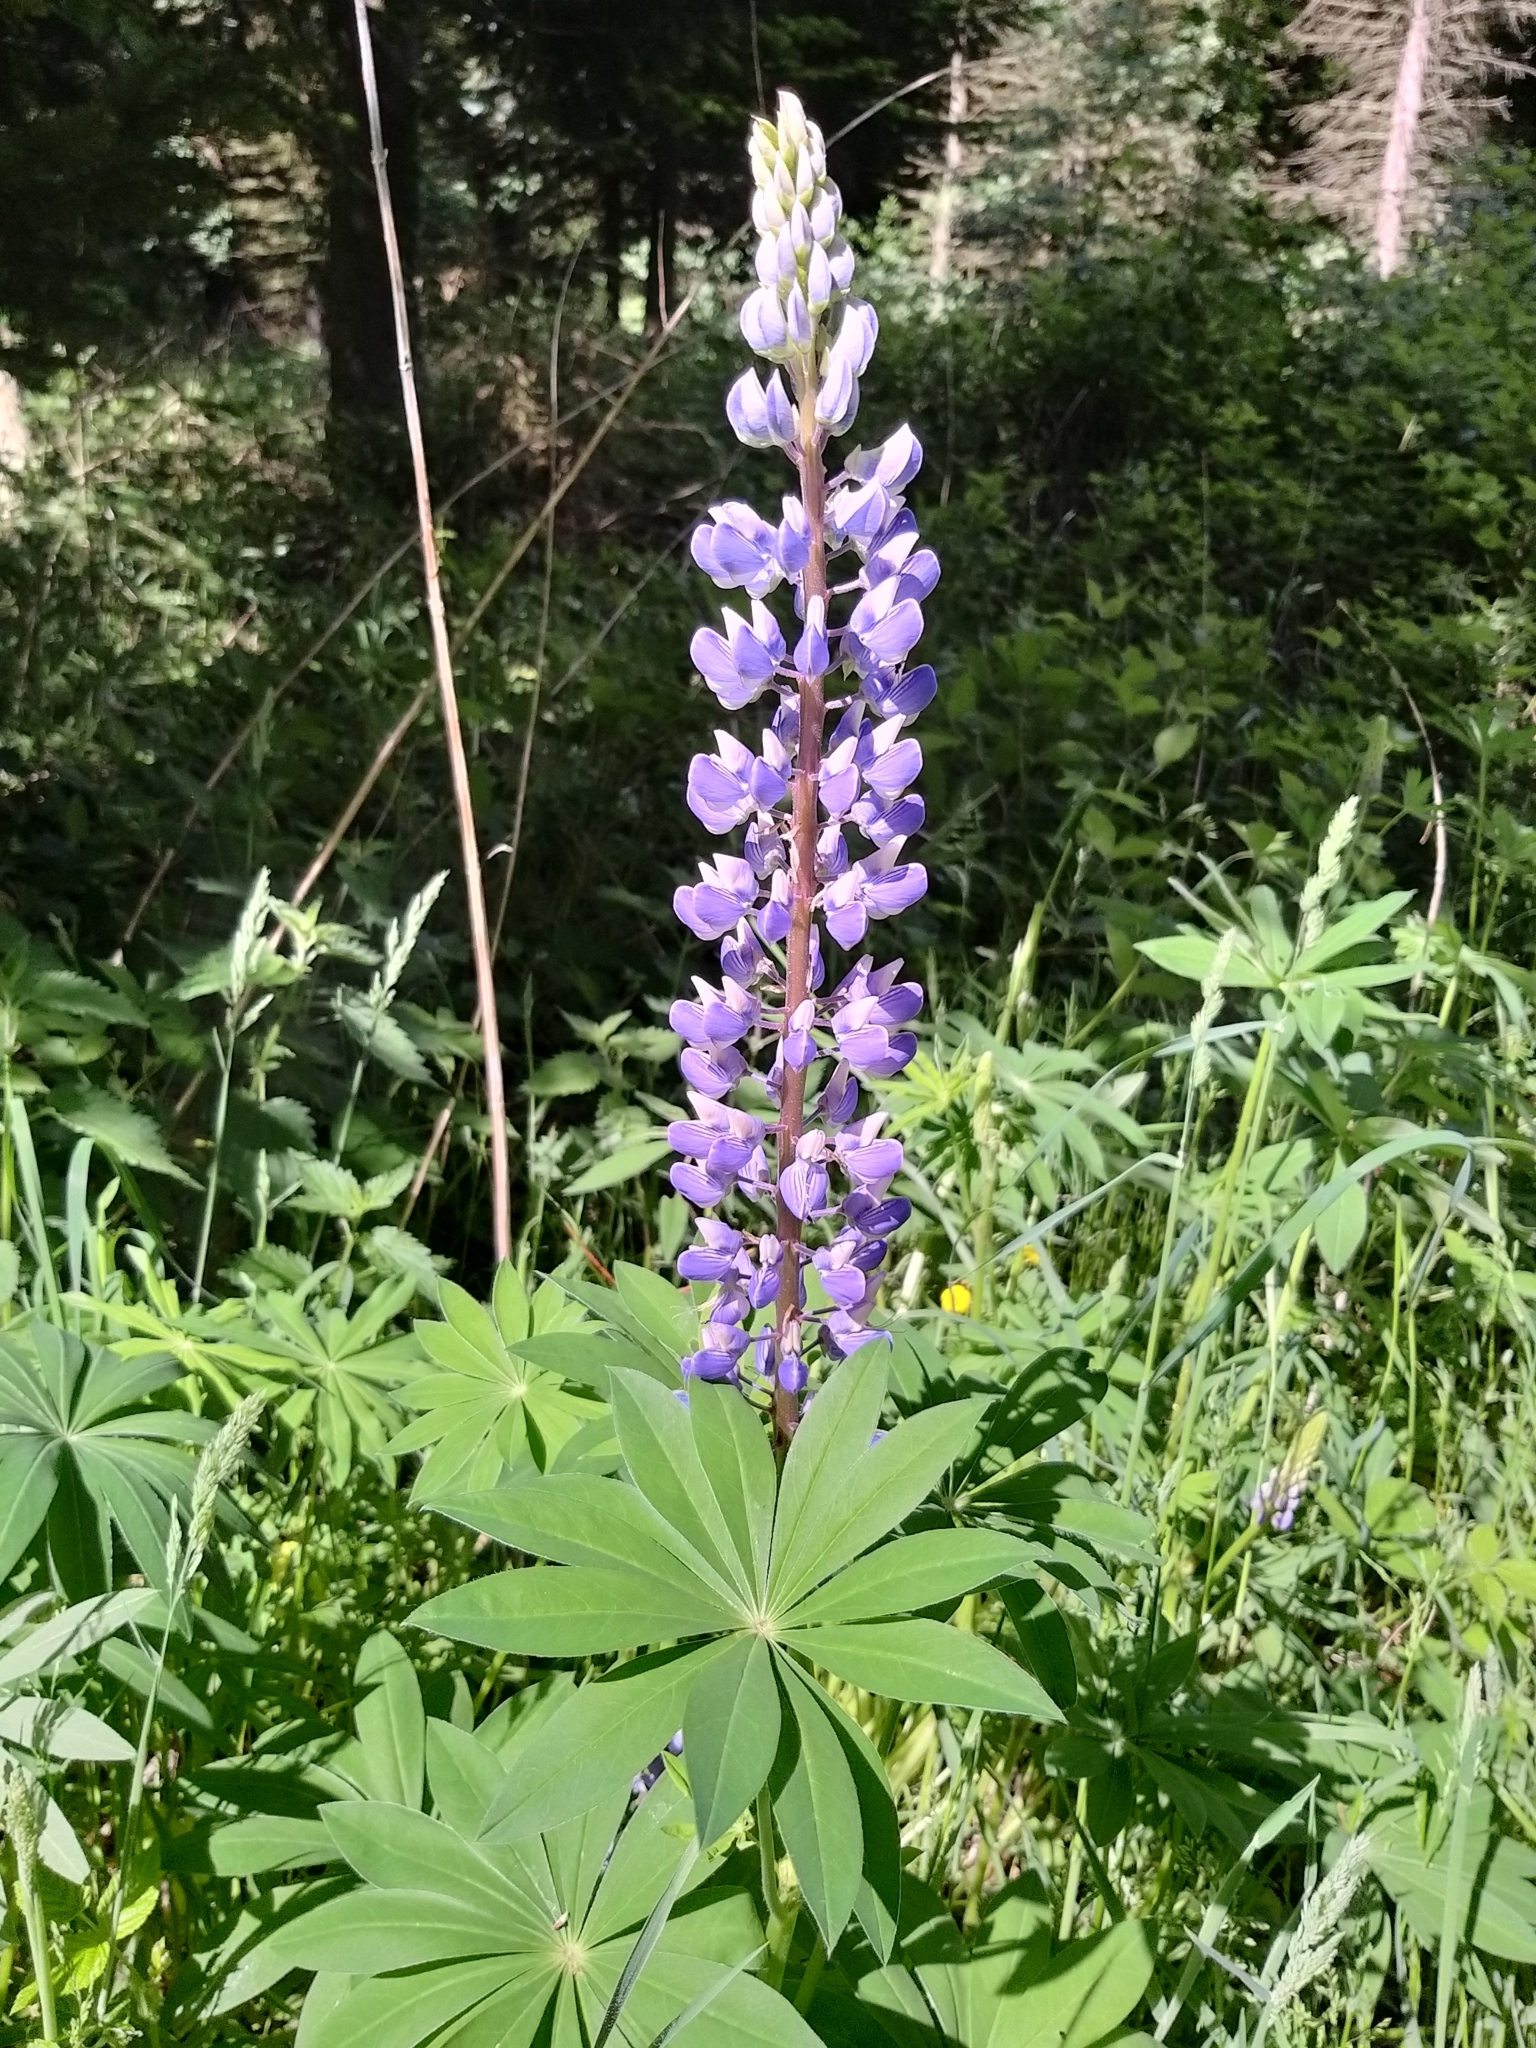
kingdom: Plantae
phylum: Tracheophyta
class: Magnoliopsida
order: Fabales
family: Fabaceae
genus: Lupinus
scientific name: Lupinus polyphyllus
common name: Garden lupin
